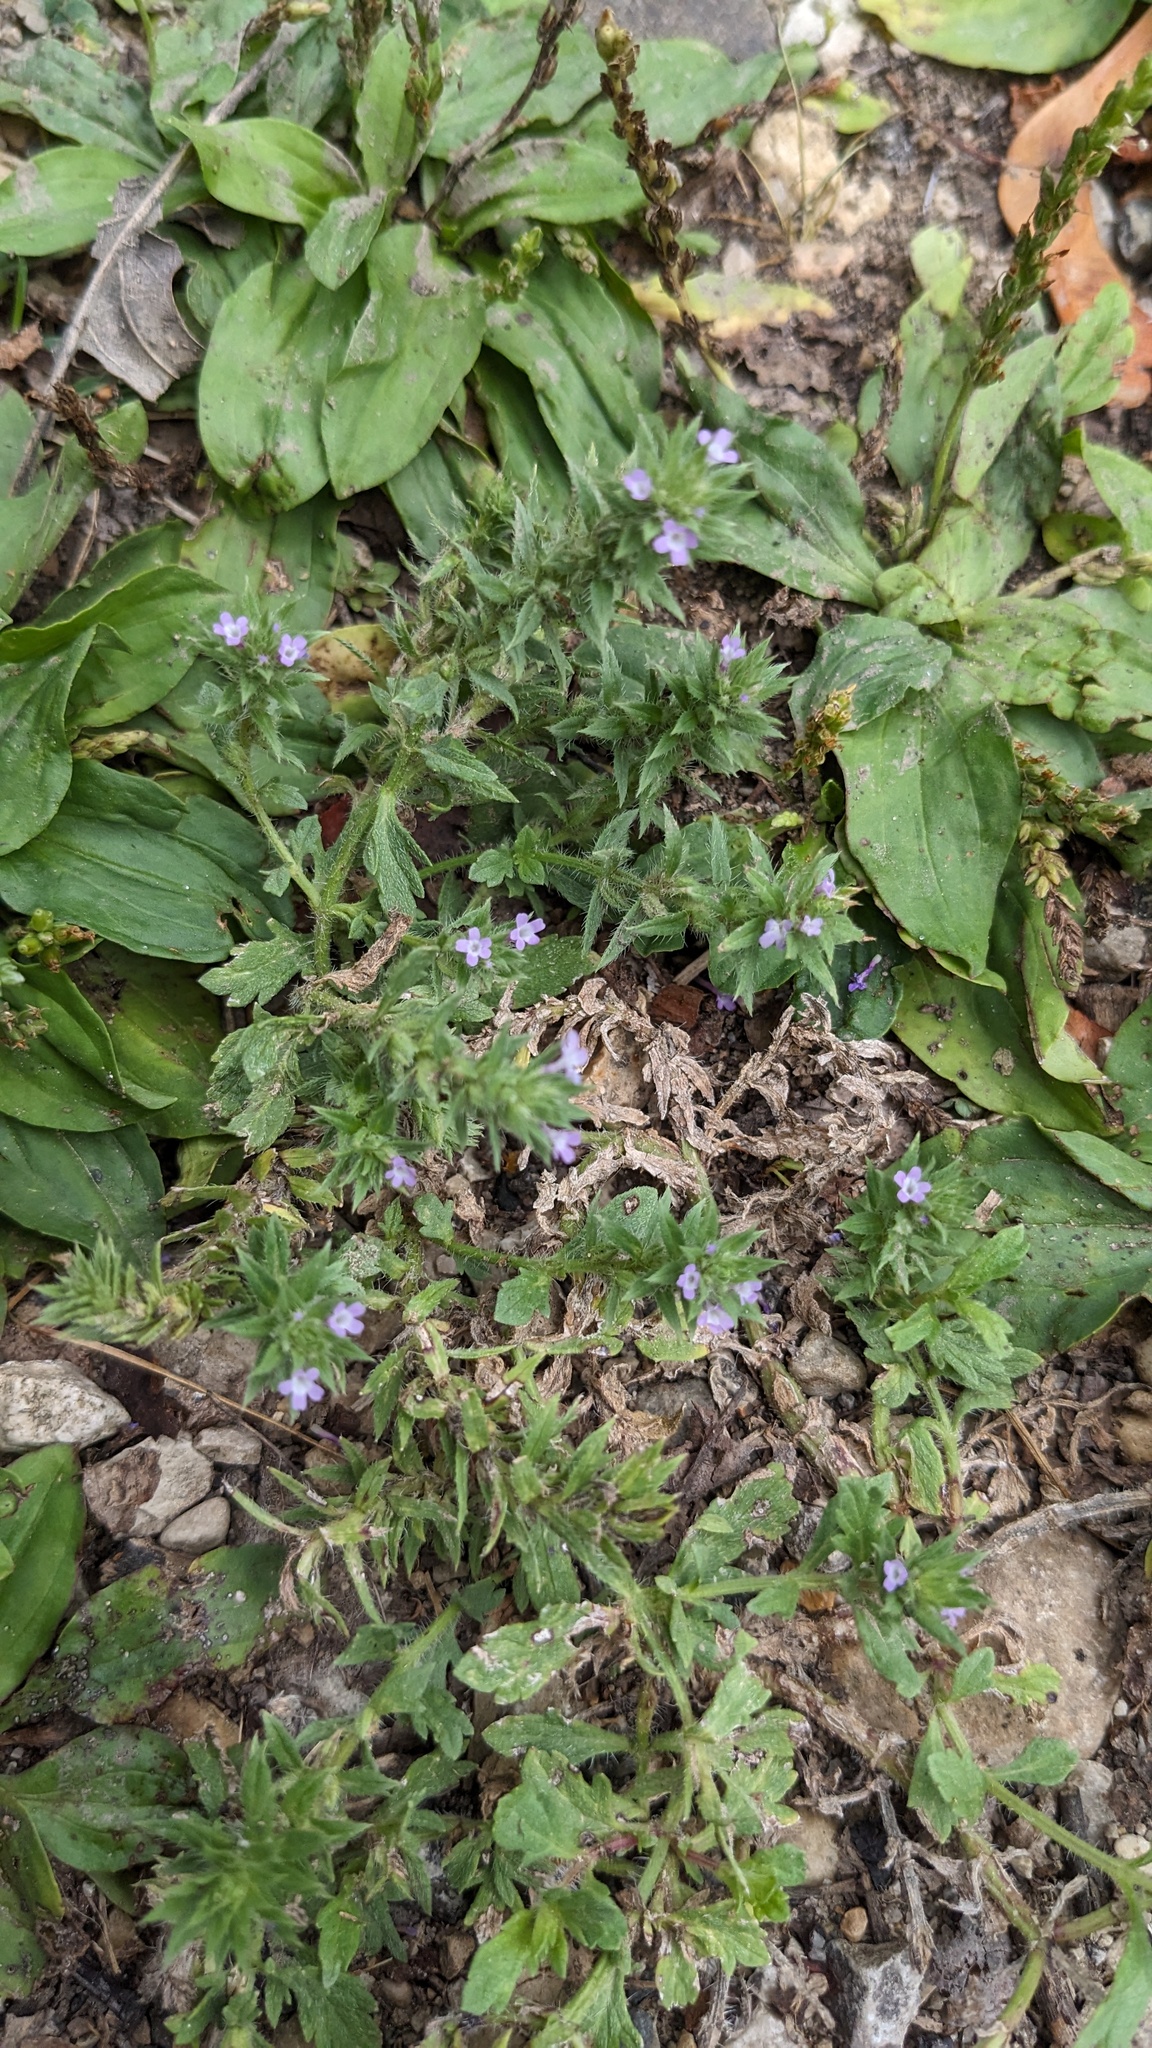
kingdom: Plantae
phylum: Tracheophyta
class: Magnoliopsida
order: Lamiales
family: Verbenaceae
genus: Verbena
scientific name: Verbena bracteata
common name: Bracted vervain
